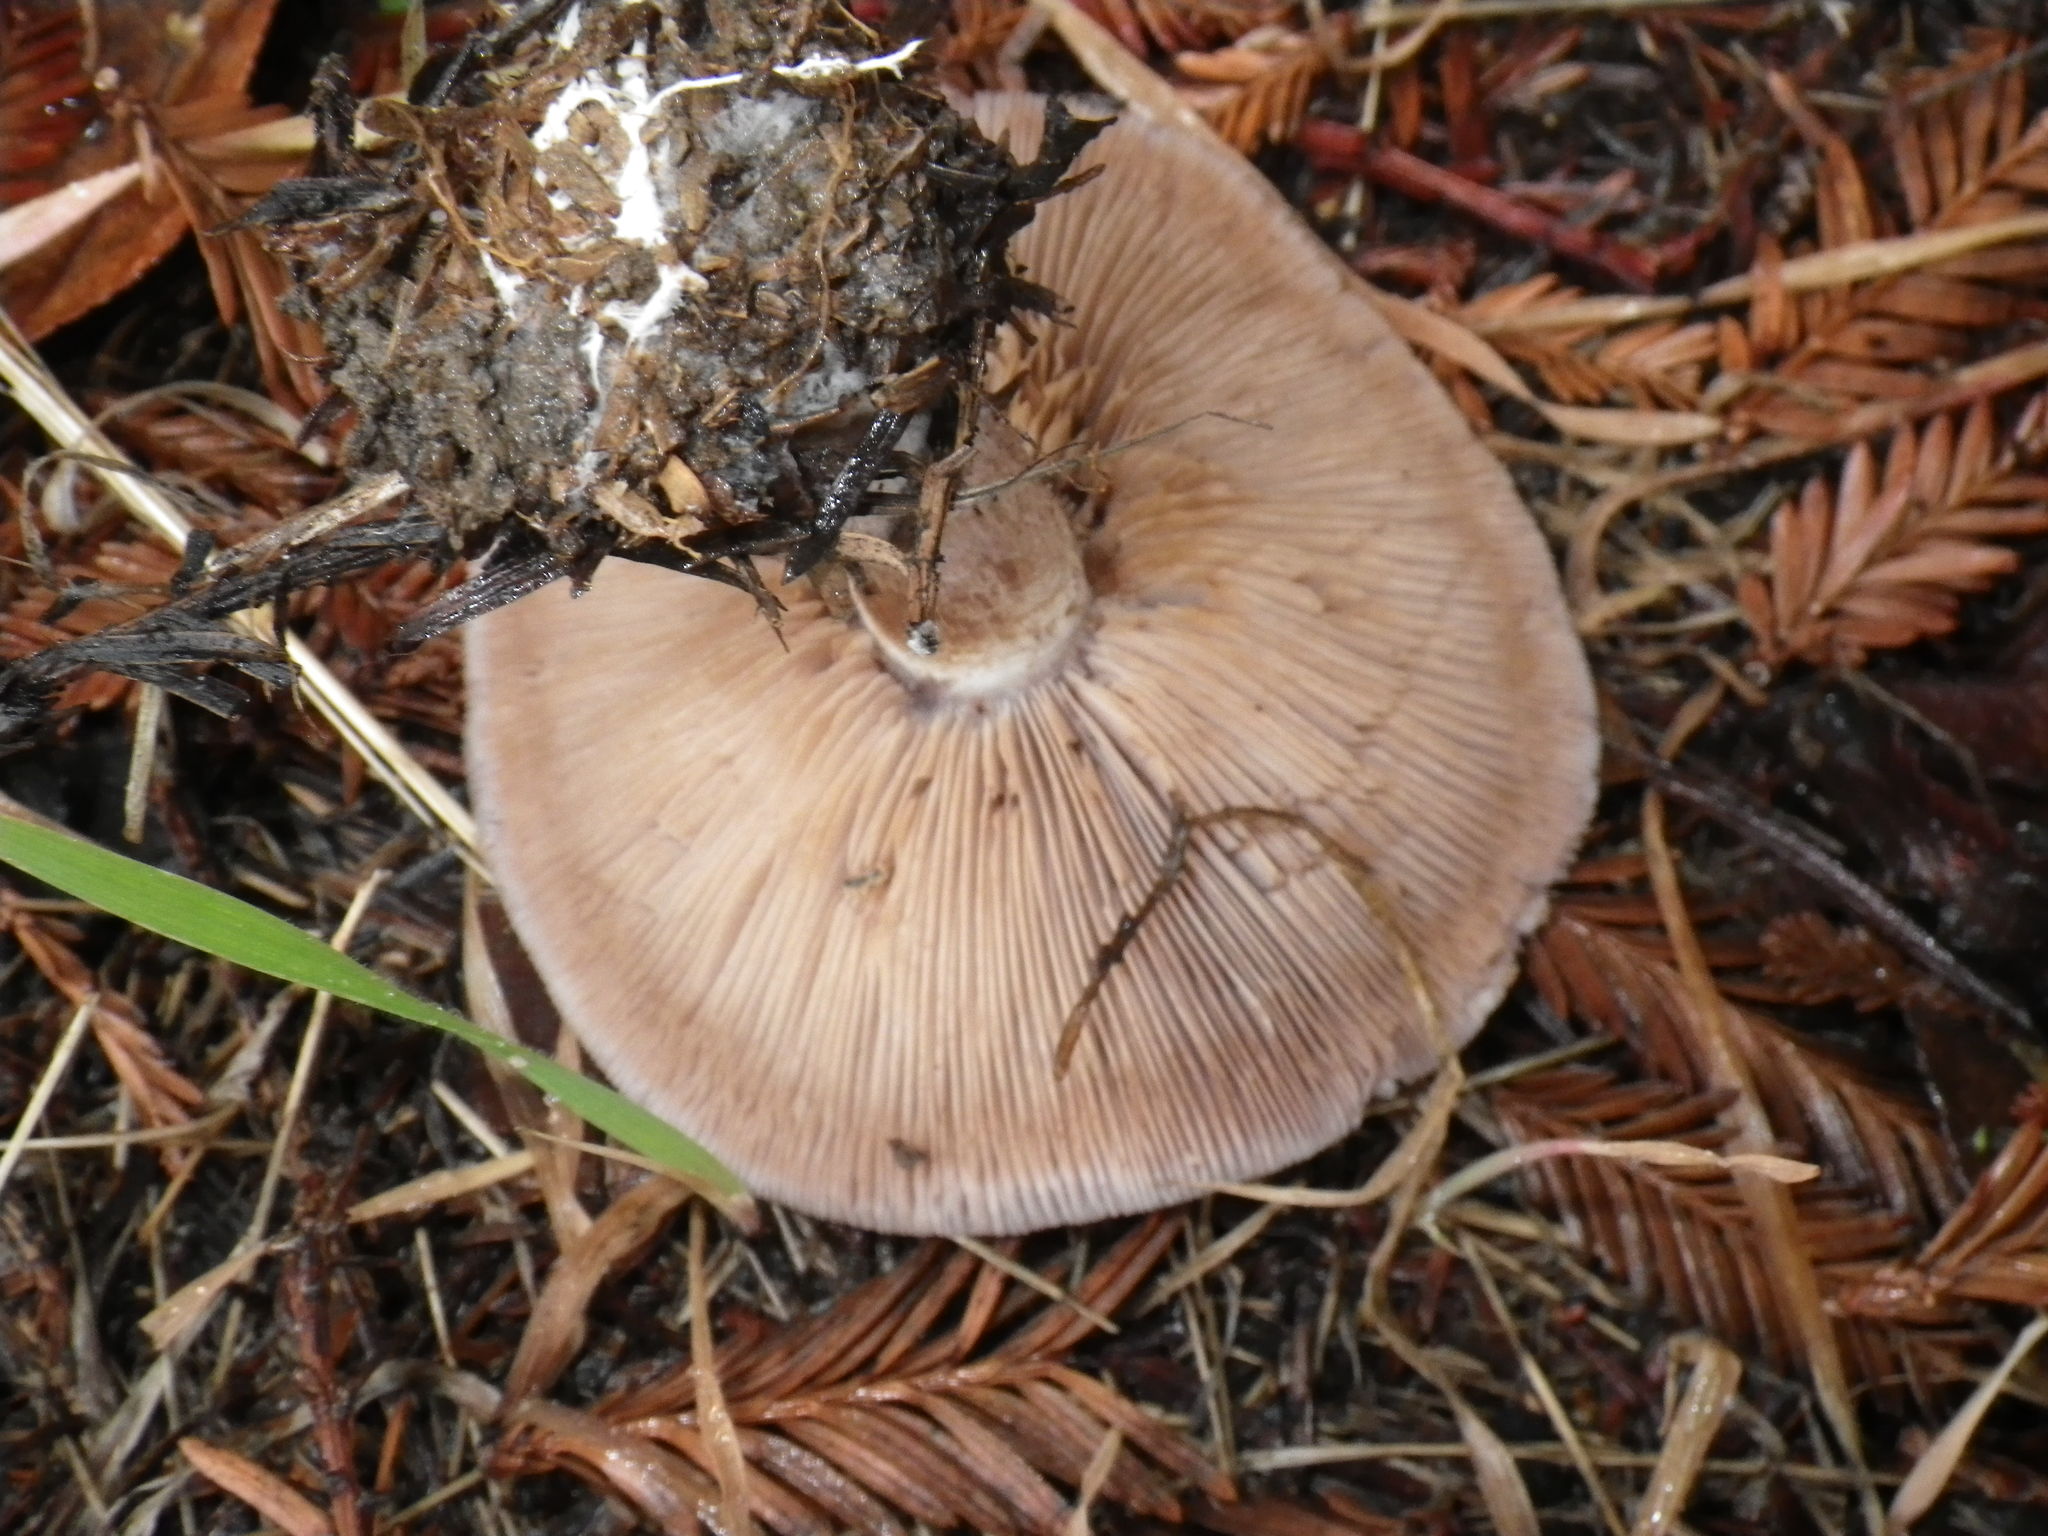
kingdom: Fungi
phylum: Basidiomycota
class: Agaricomycetes
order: Agaricales
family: Tricholomataceae
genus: Collybia
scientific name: Collybia
